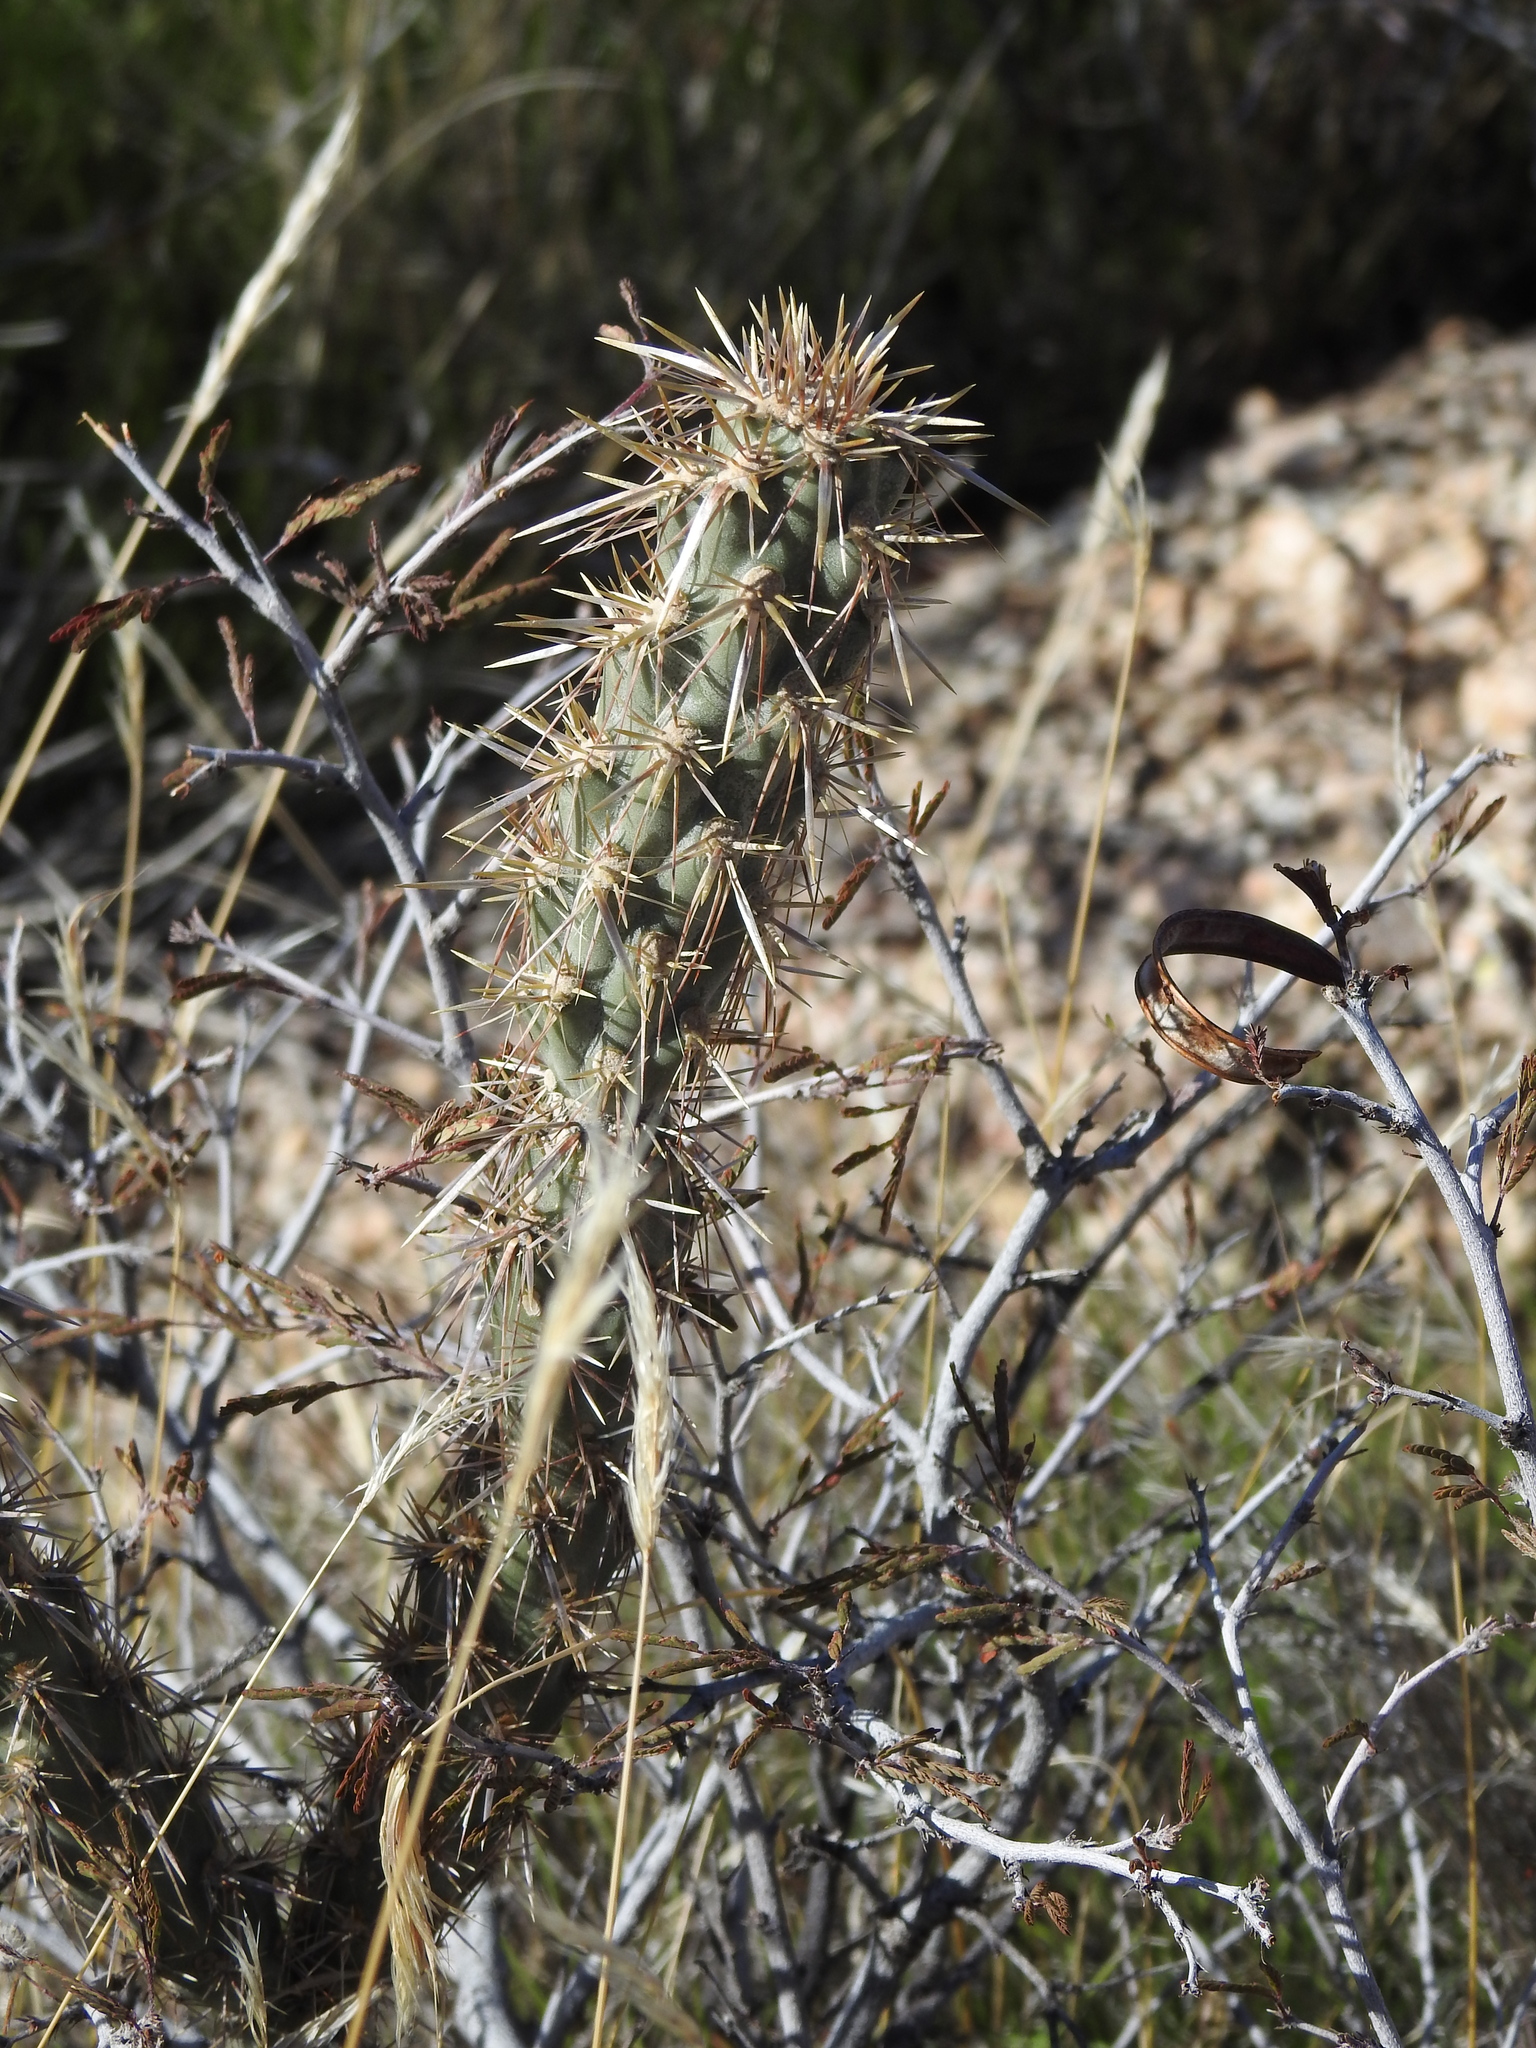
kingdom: Plantae
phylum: Tracheophyta
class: Magnoliopsida
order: Caryophyllales
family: Cactaceae
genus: Cylindropuntia
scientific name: Cylindropuntia acanthocarpa
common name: Buckhorn cholla
